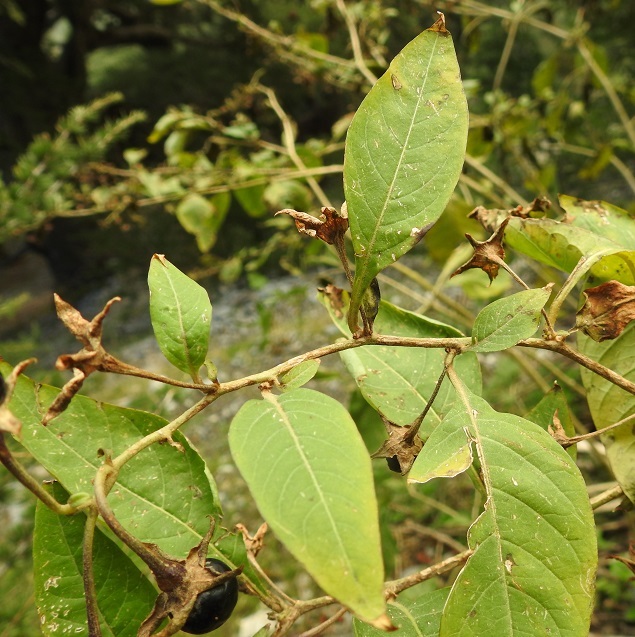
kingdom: Plantae
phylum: Tracheophyta
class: Magnoliopsida
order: Solanales
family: Solanaceae
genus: Atropa
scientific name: Atropa belladonna
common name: Deadly nightshade
